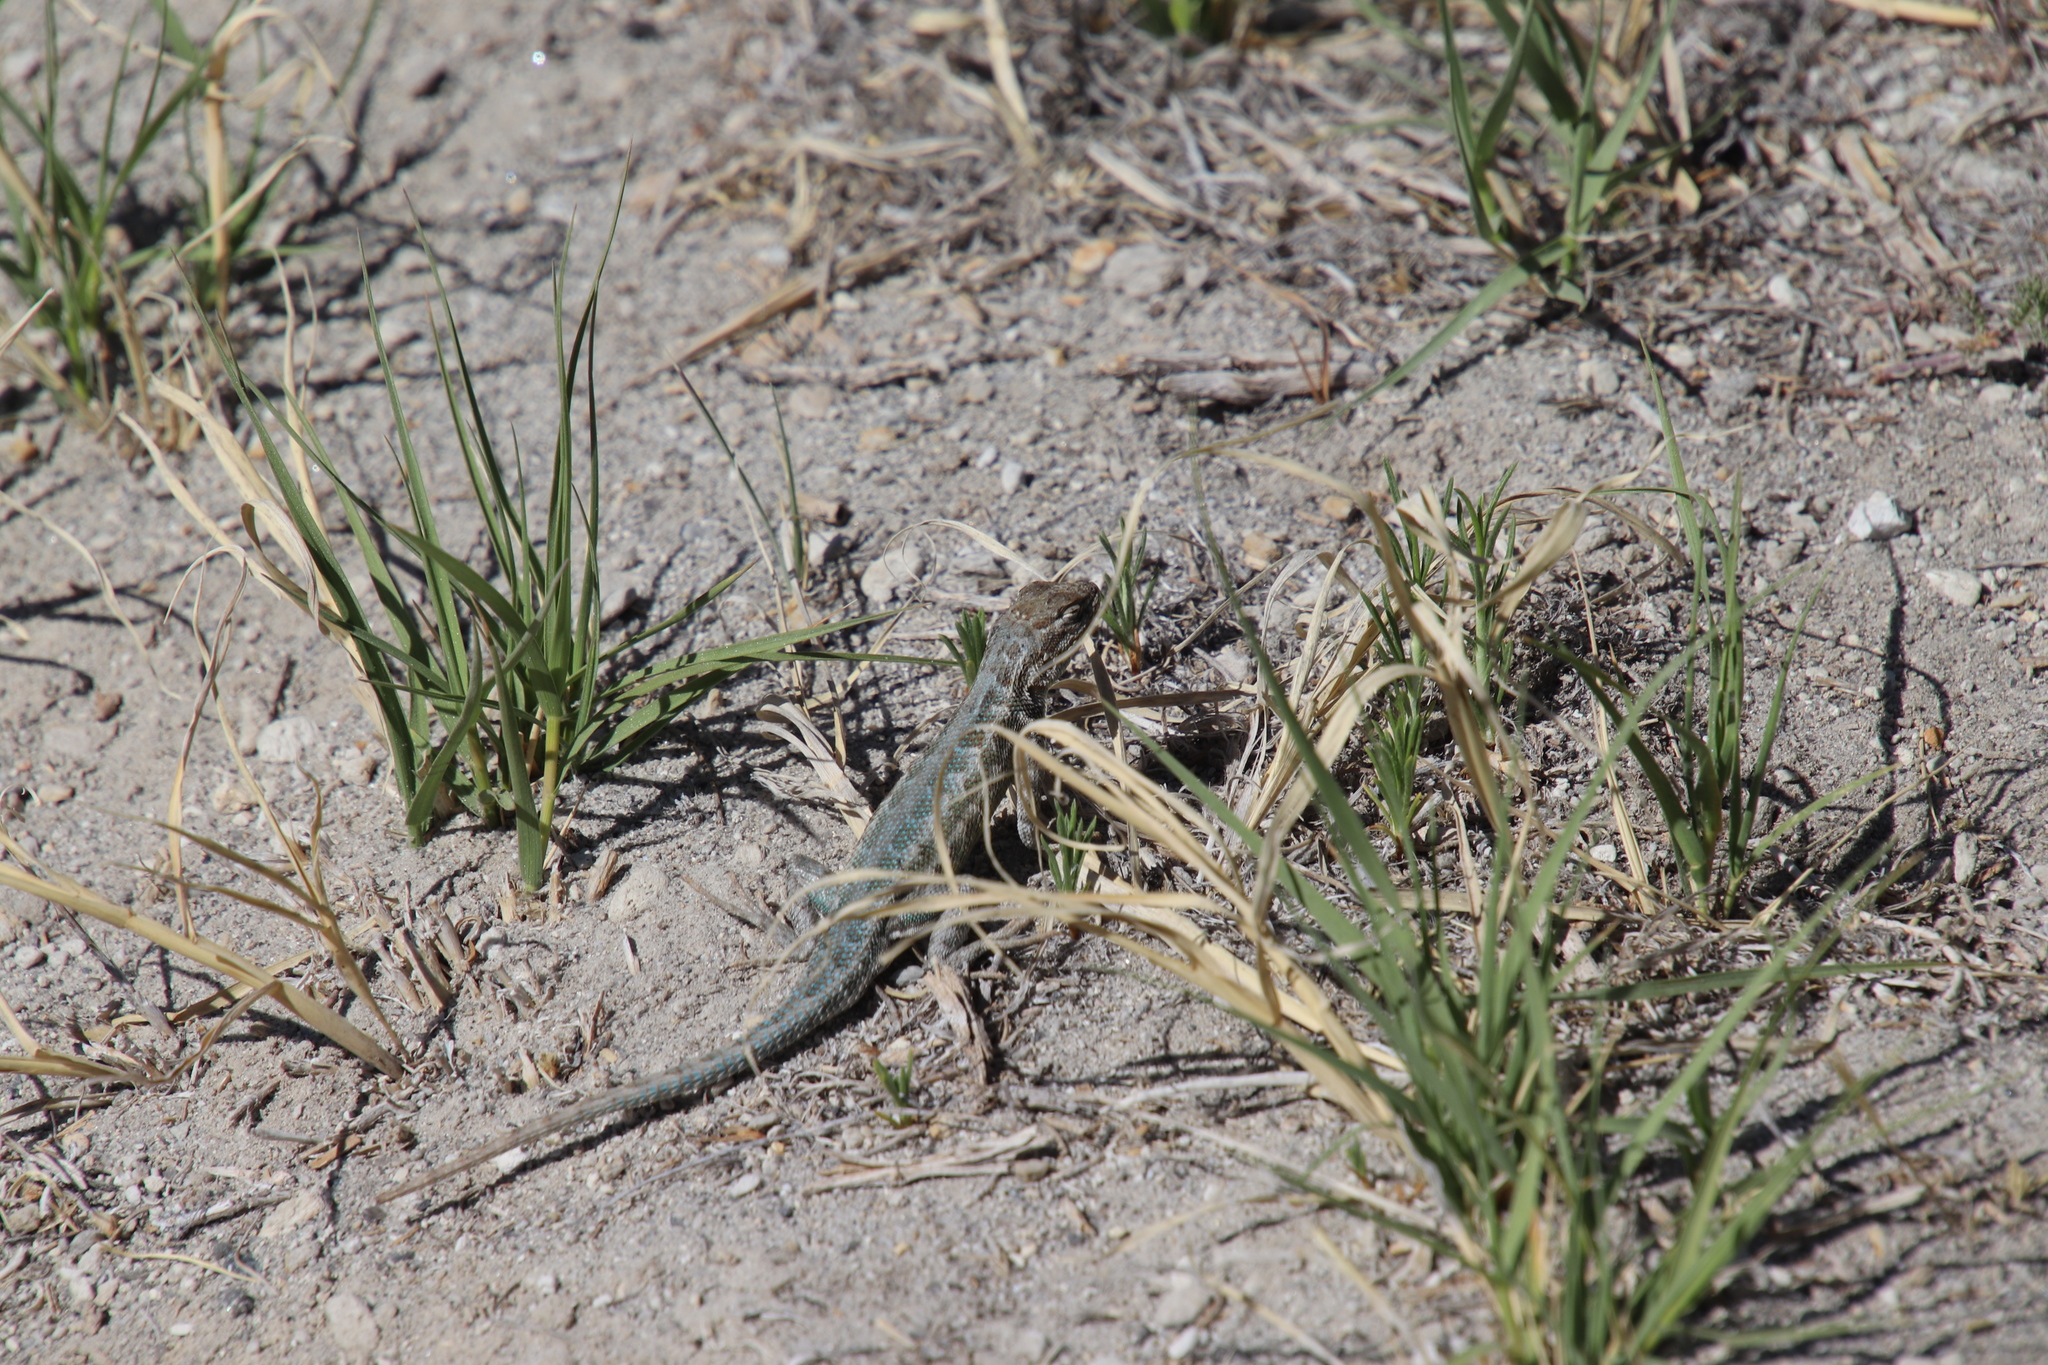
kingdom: Animalia
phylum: Chordata
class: Squamata
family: Phrynosomatidae
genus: Sceloporus
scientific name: Sceloporus graciosus
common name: Sagebrush lizard
